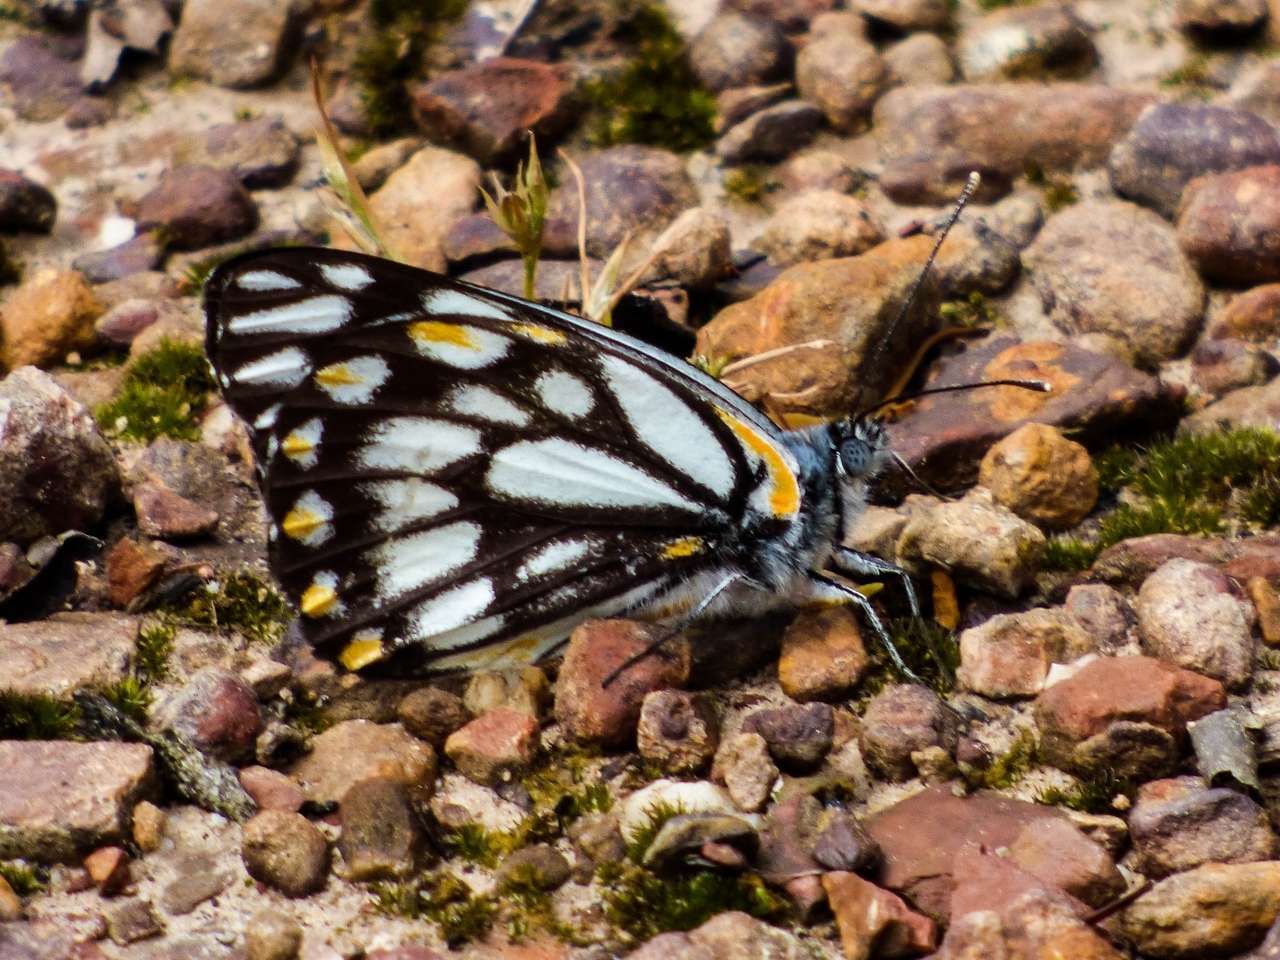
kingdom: Animalia
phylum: Arthropoda
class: Insecta
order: Lepidoptera
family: Pieridae
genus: Belenois
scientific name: Belenois java
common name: Caper white
